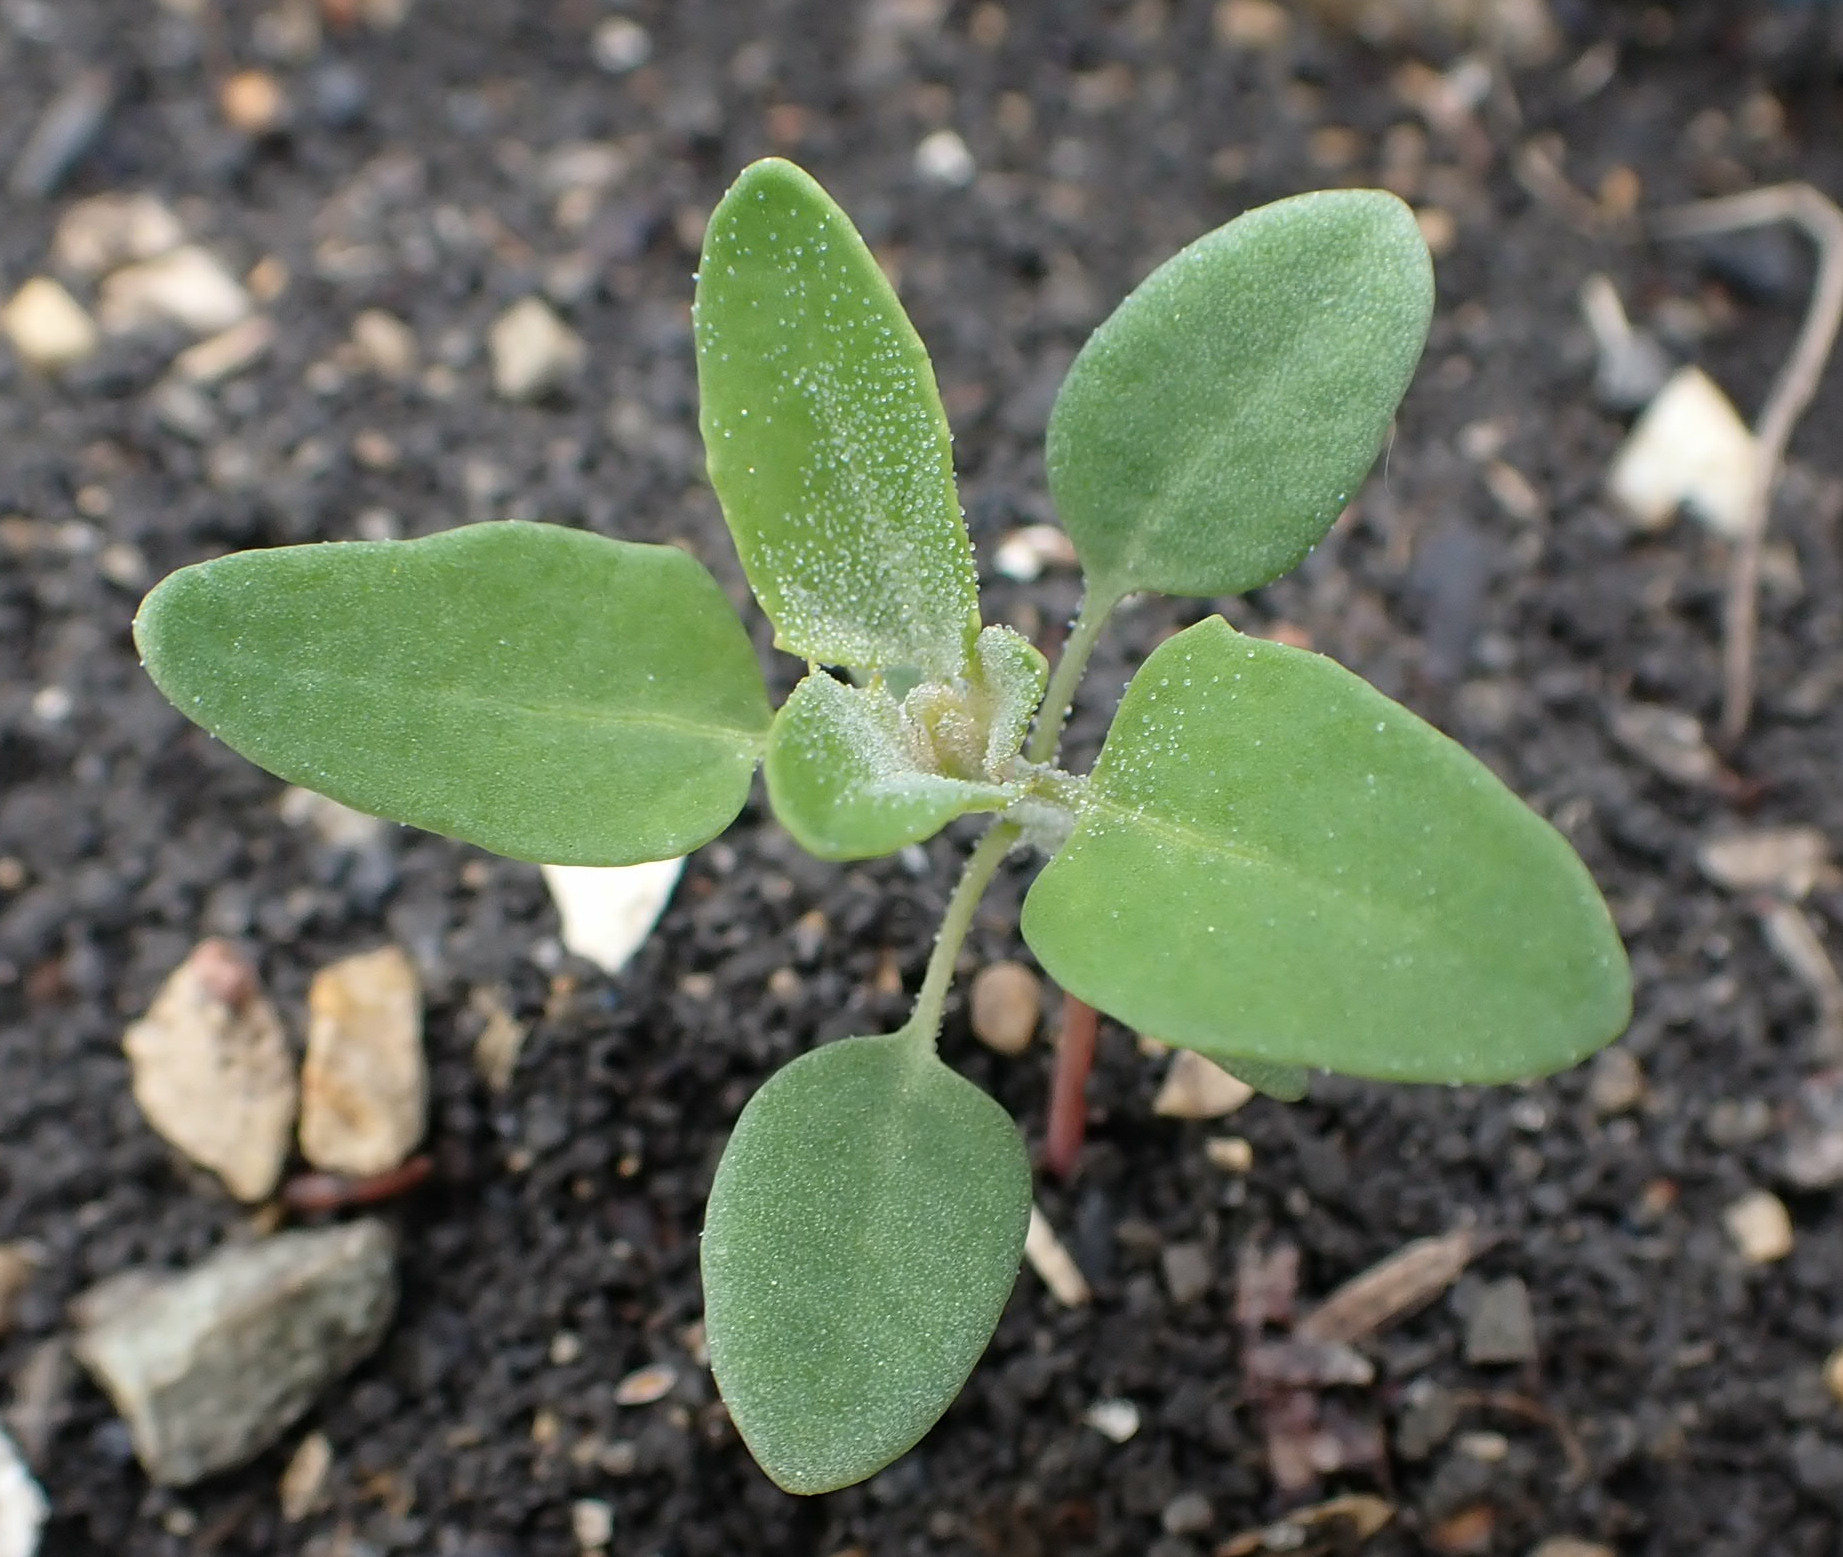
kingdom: Plantae
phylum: Tracheophyta
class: Magnoliopsida
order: Caryophyllales
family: Amaranthaceae
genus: Chenopodium
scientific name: Chenopodium album
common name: Fat-hen
